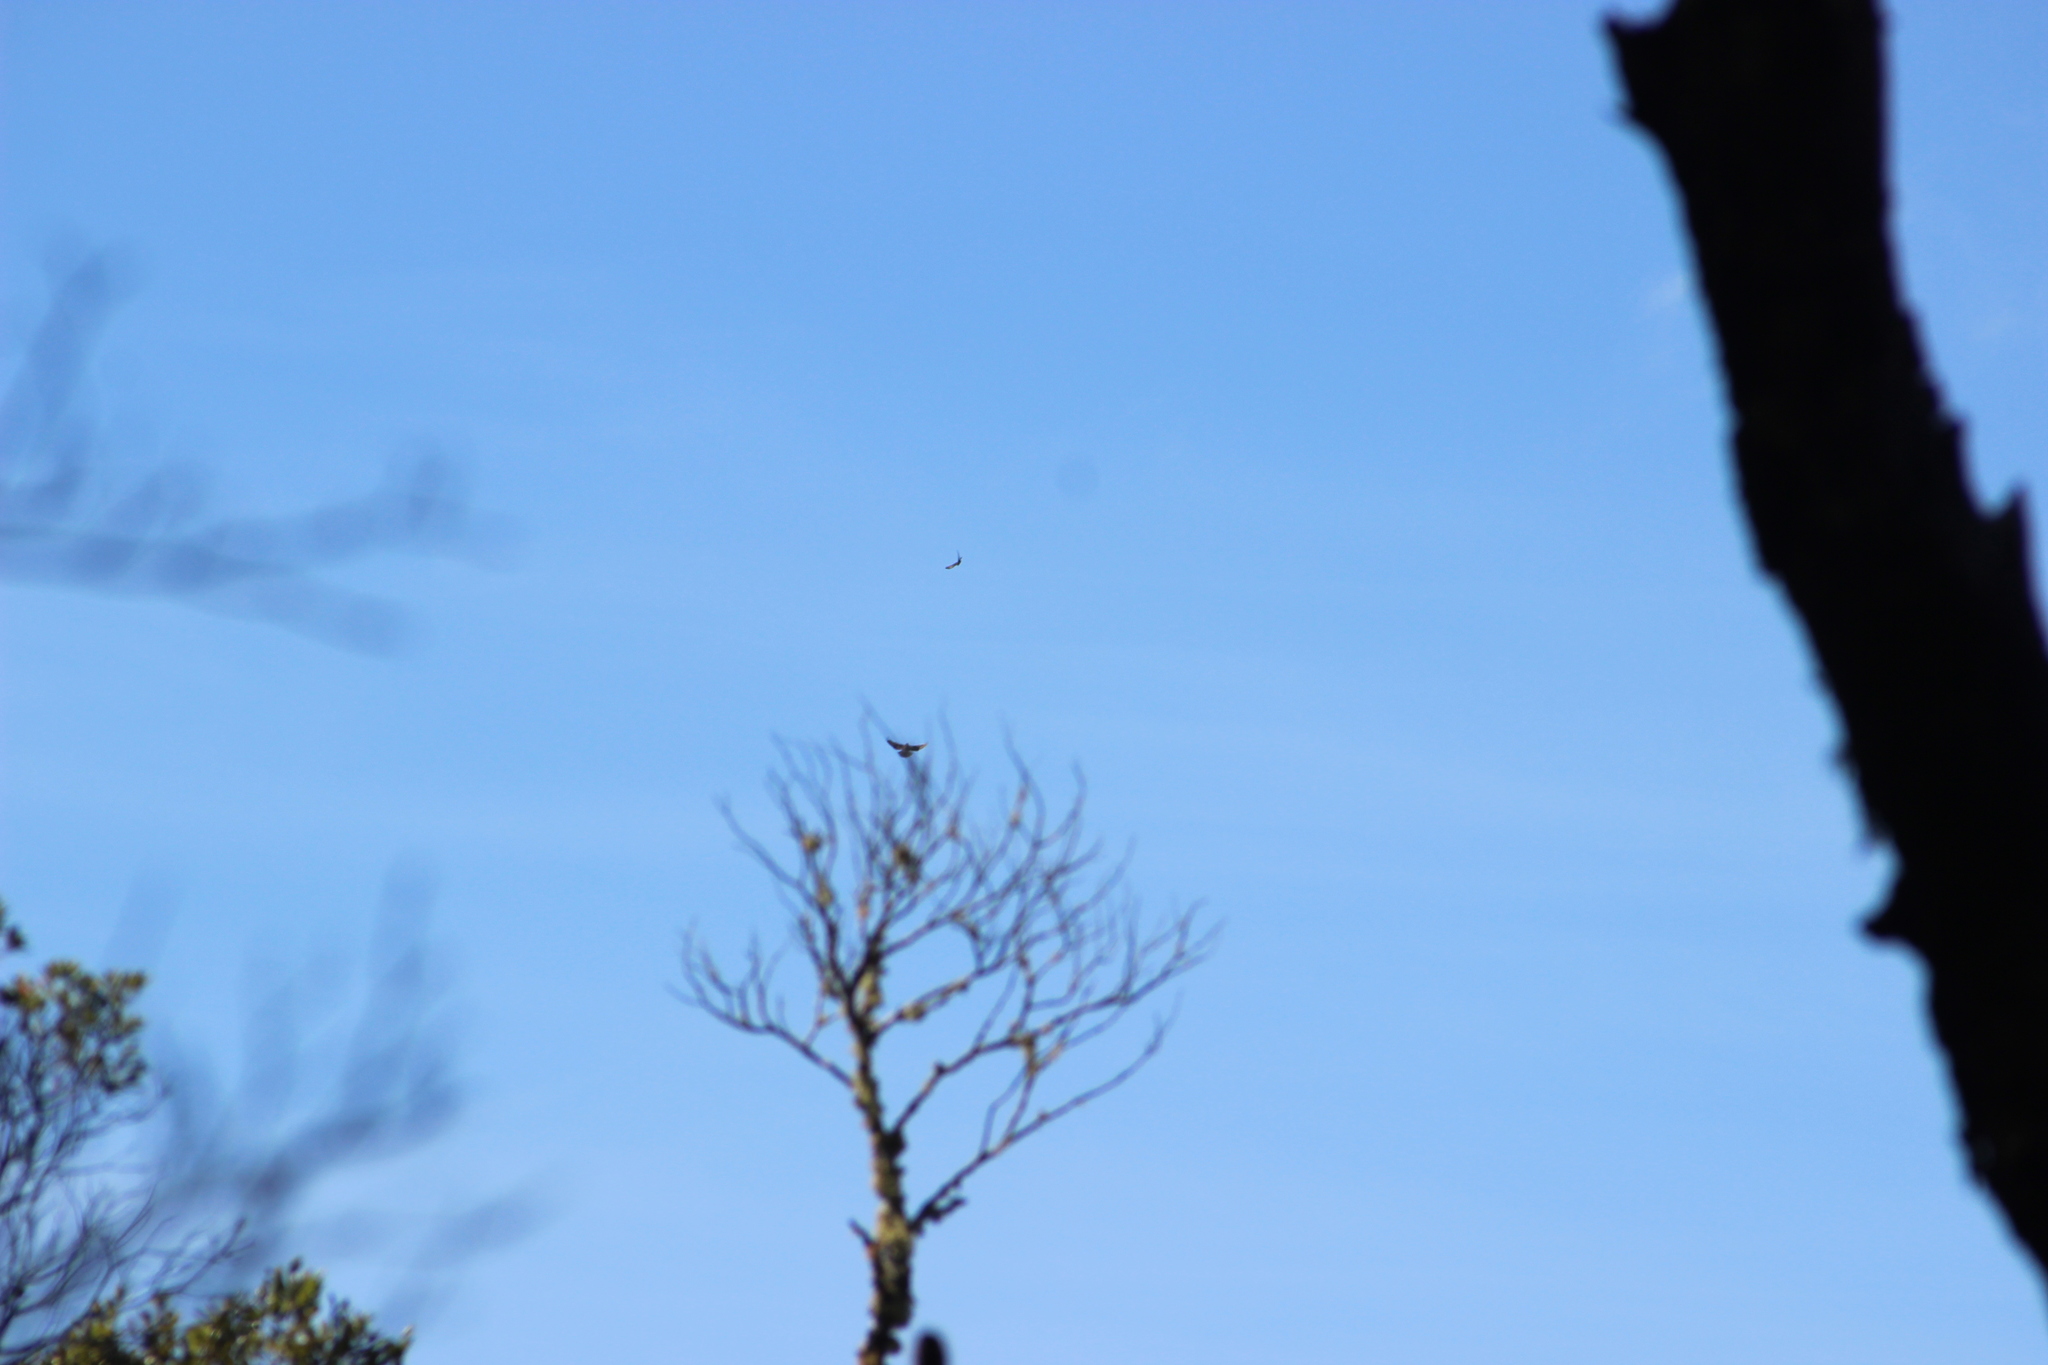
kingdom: Animalia
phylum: Chordata
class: Aves
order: Accipitriformes
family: Accipitridae
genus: Circus
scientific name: Circus approximans
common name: Swamp harrier
